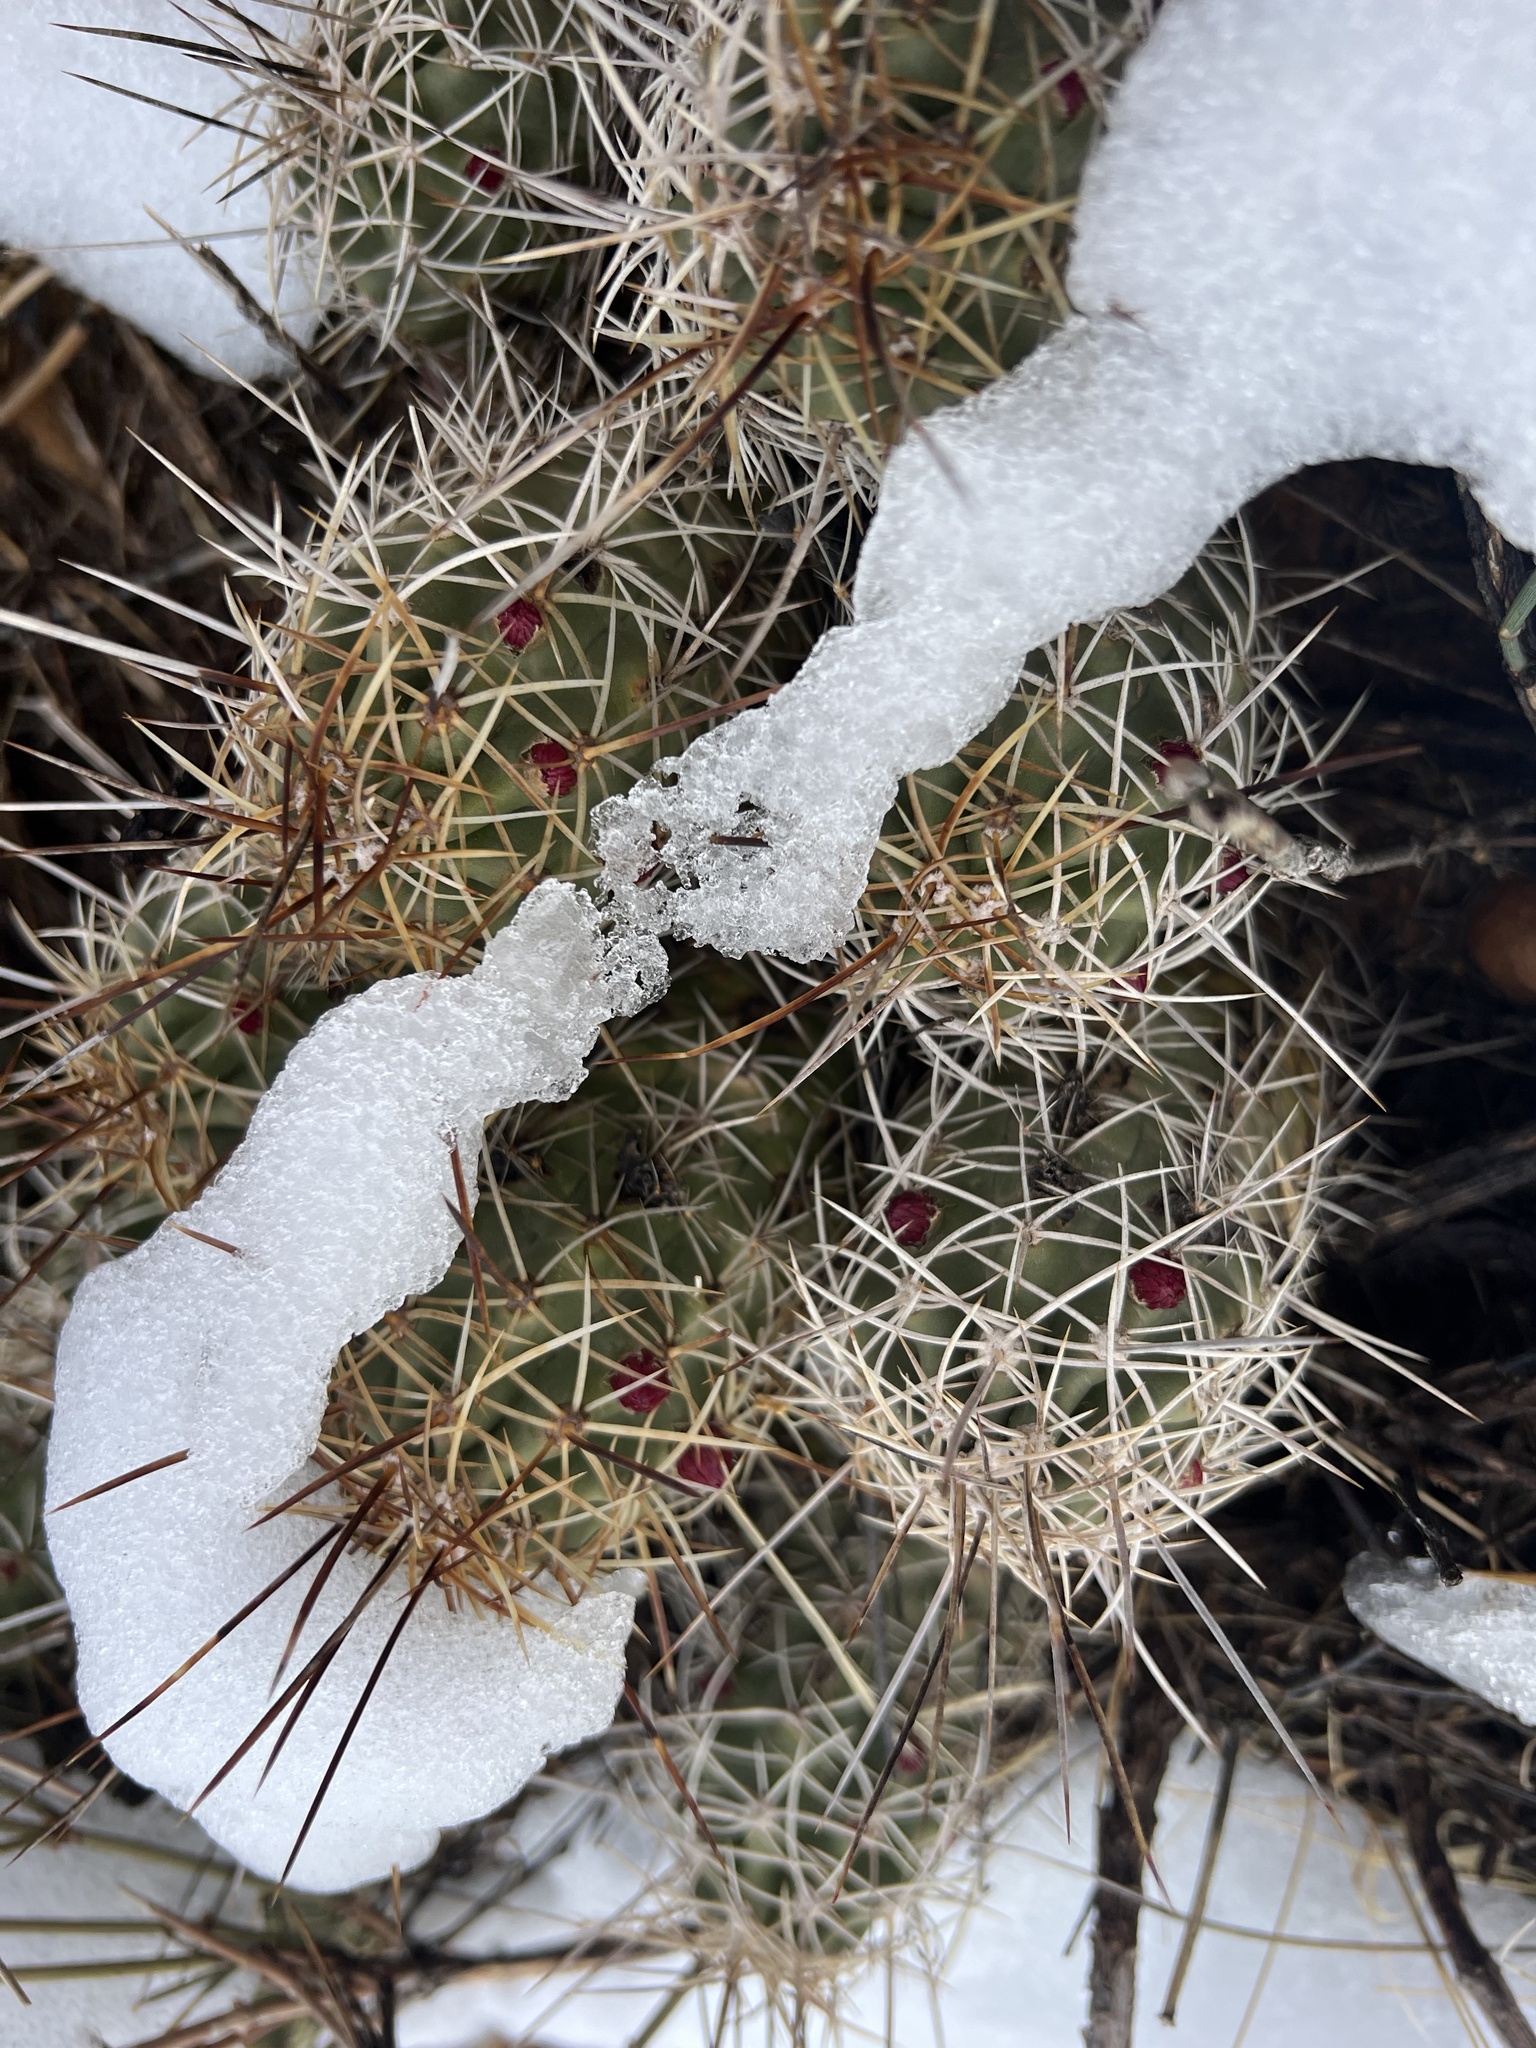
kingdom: Plantae
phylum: Tracheophyta
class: Magnoliopsida
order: Caryophyllales
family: Cactaceae
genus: Echinocereus
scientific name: Echinocereus triglochidiatus
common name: Claretcup hedgehog
